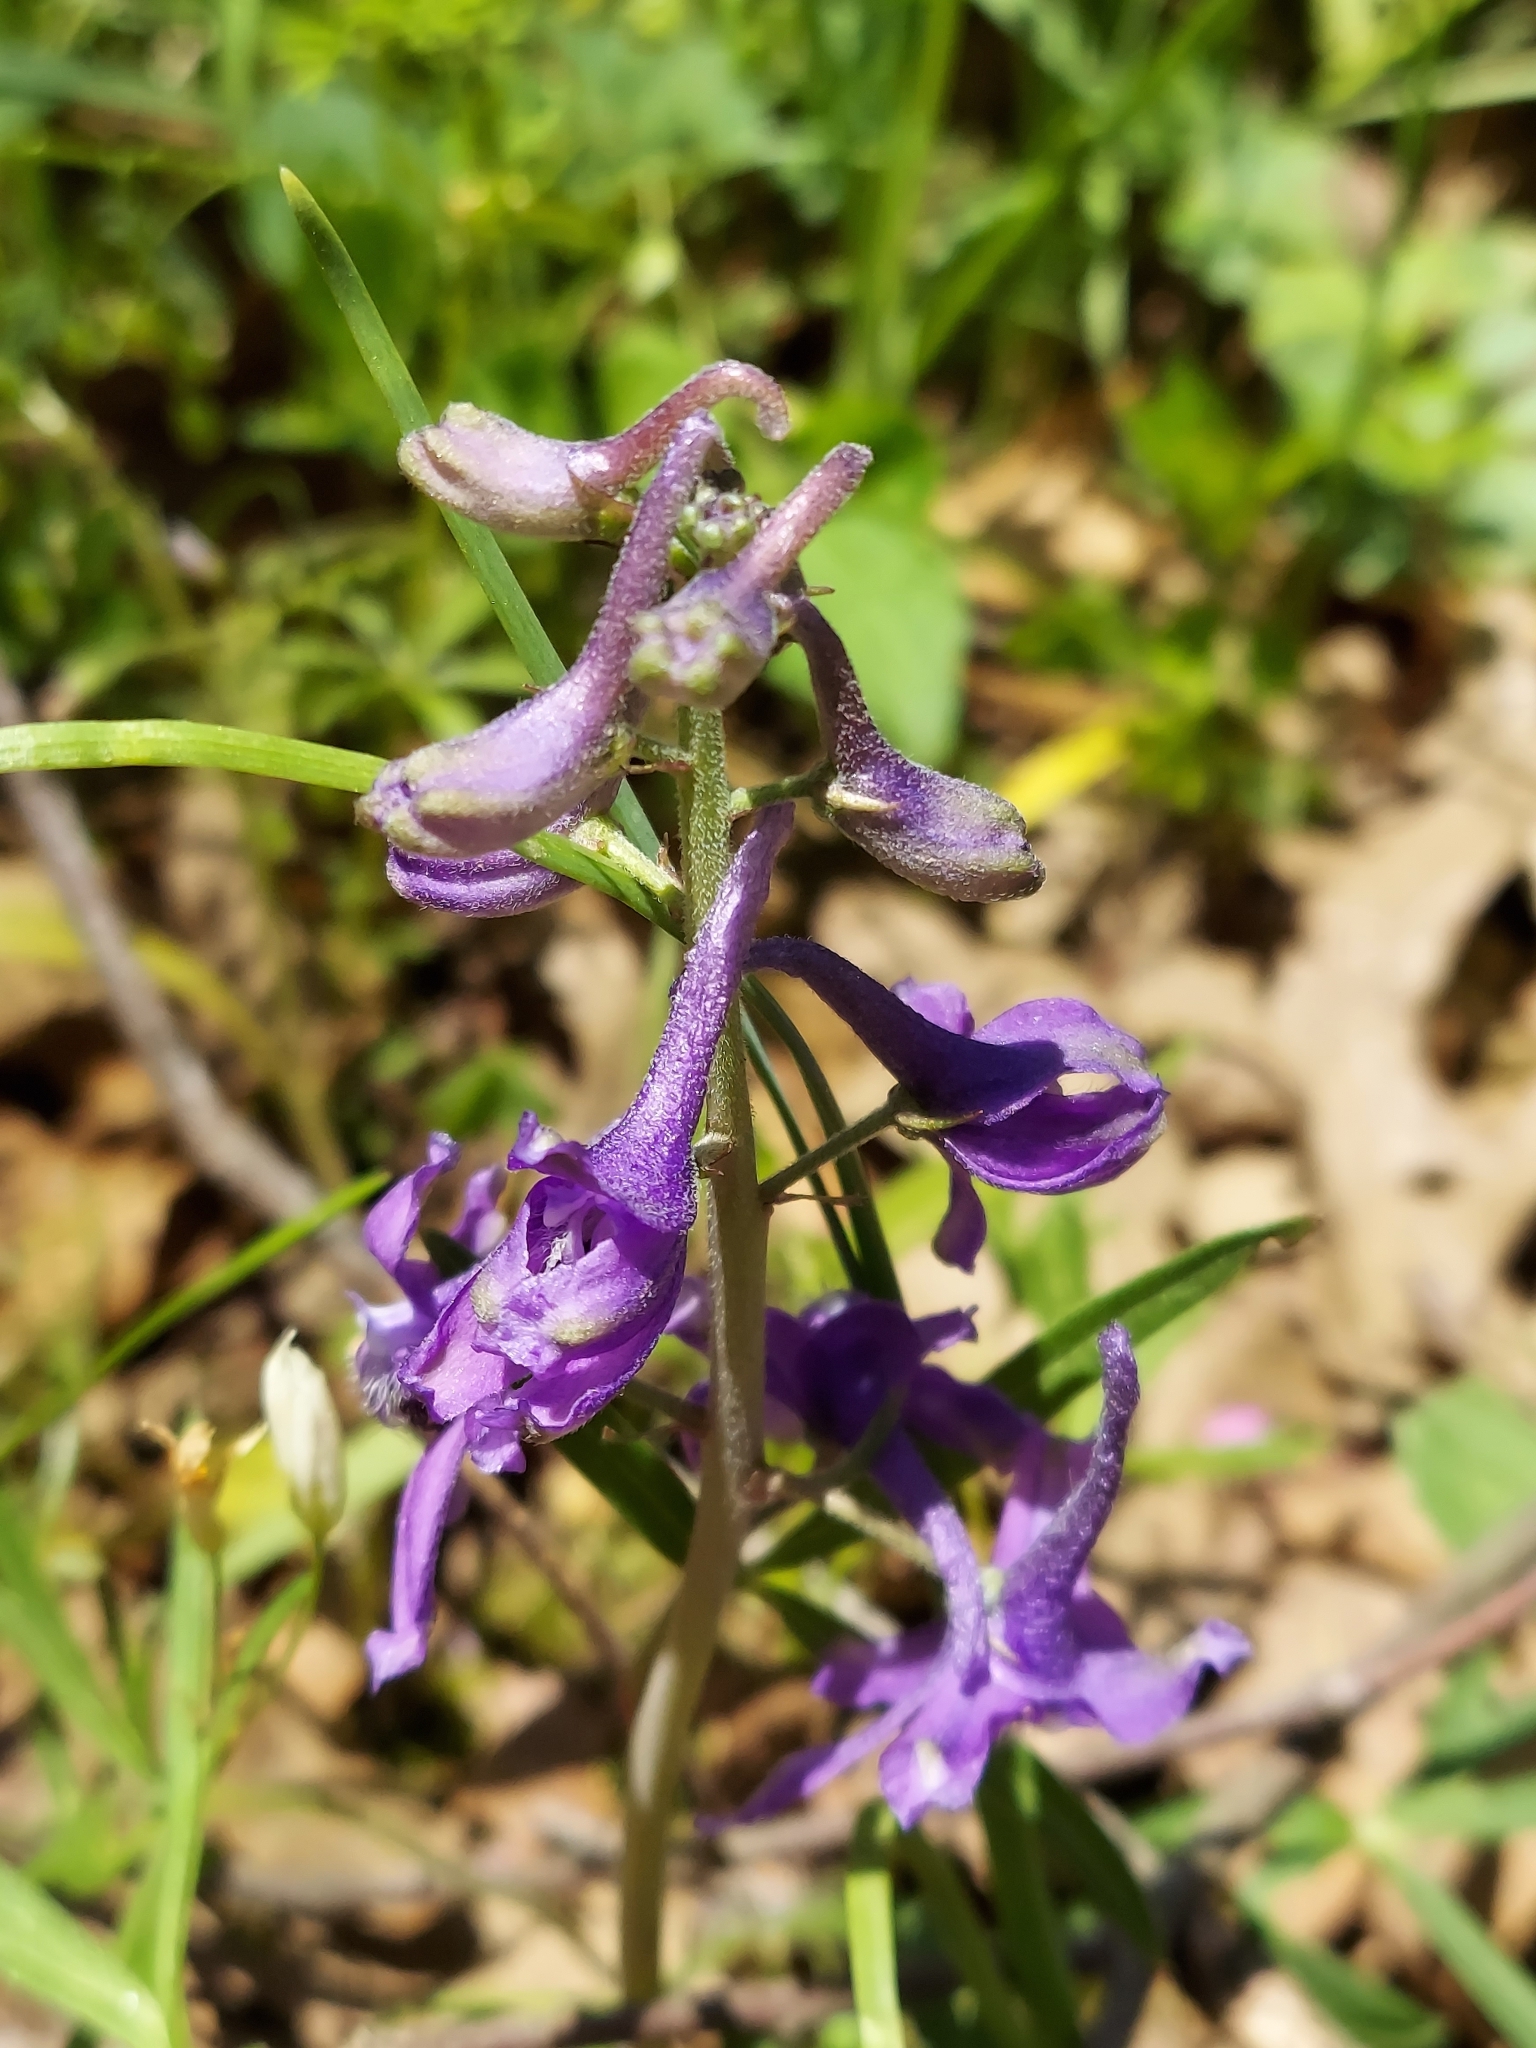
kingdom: Plantae
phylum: Tracheophyta
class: Magnoliopsida
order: Ranunculales
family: Ranunculaceae
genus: Delphinium
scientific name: Delphinium tricorne
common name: Dwarf larkspur
